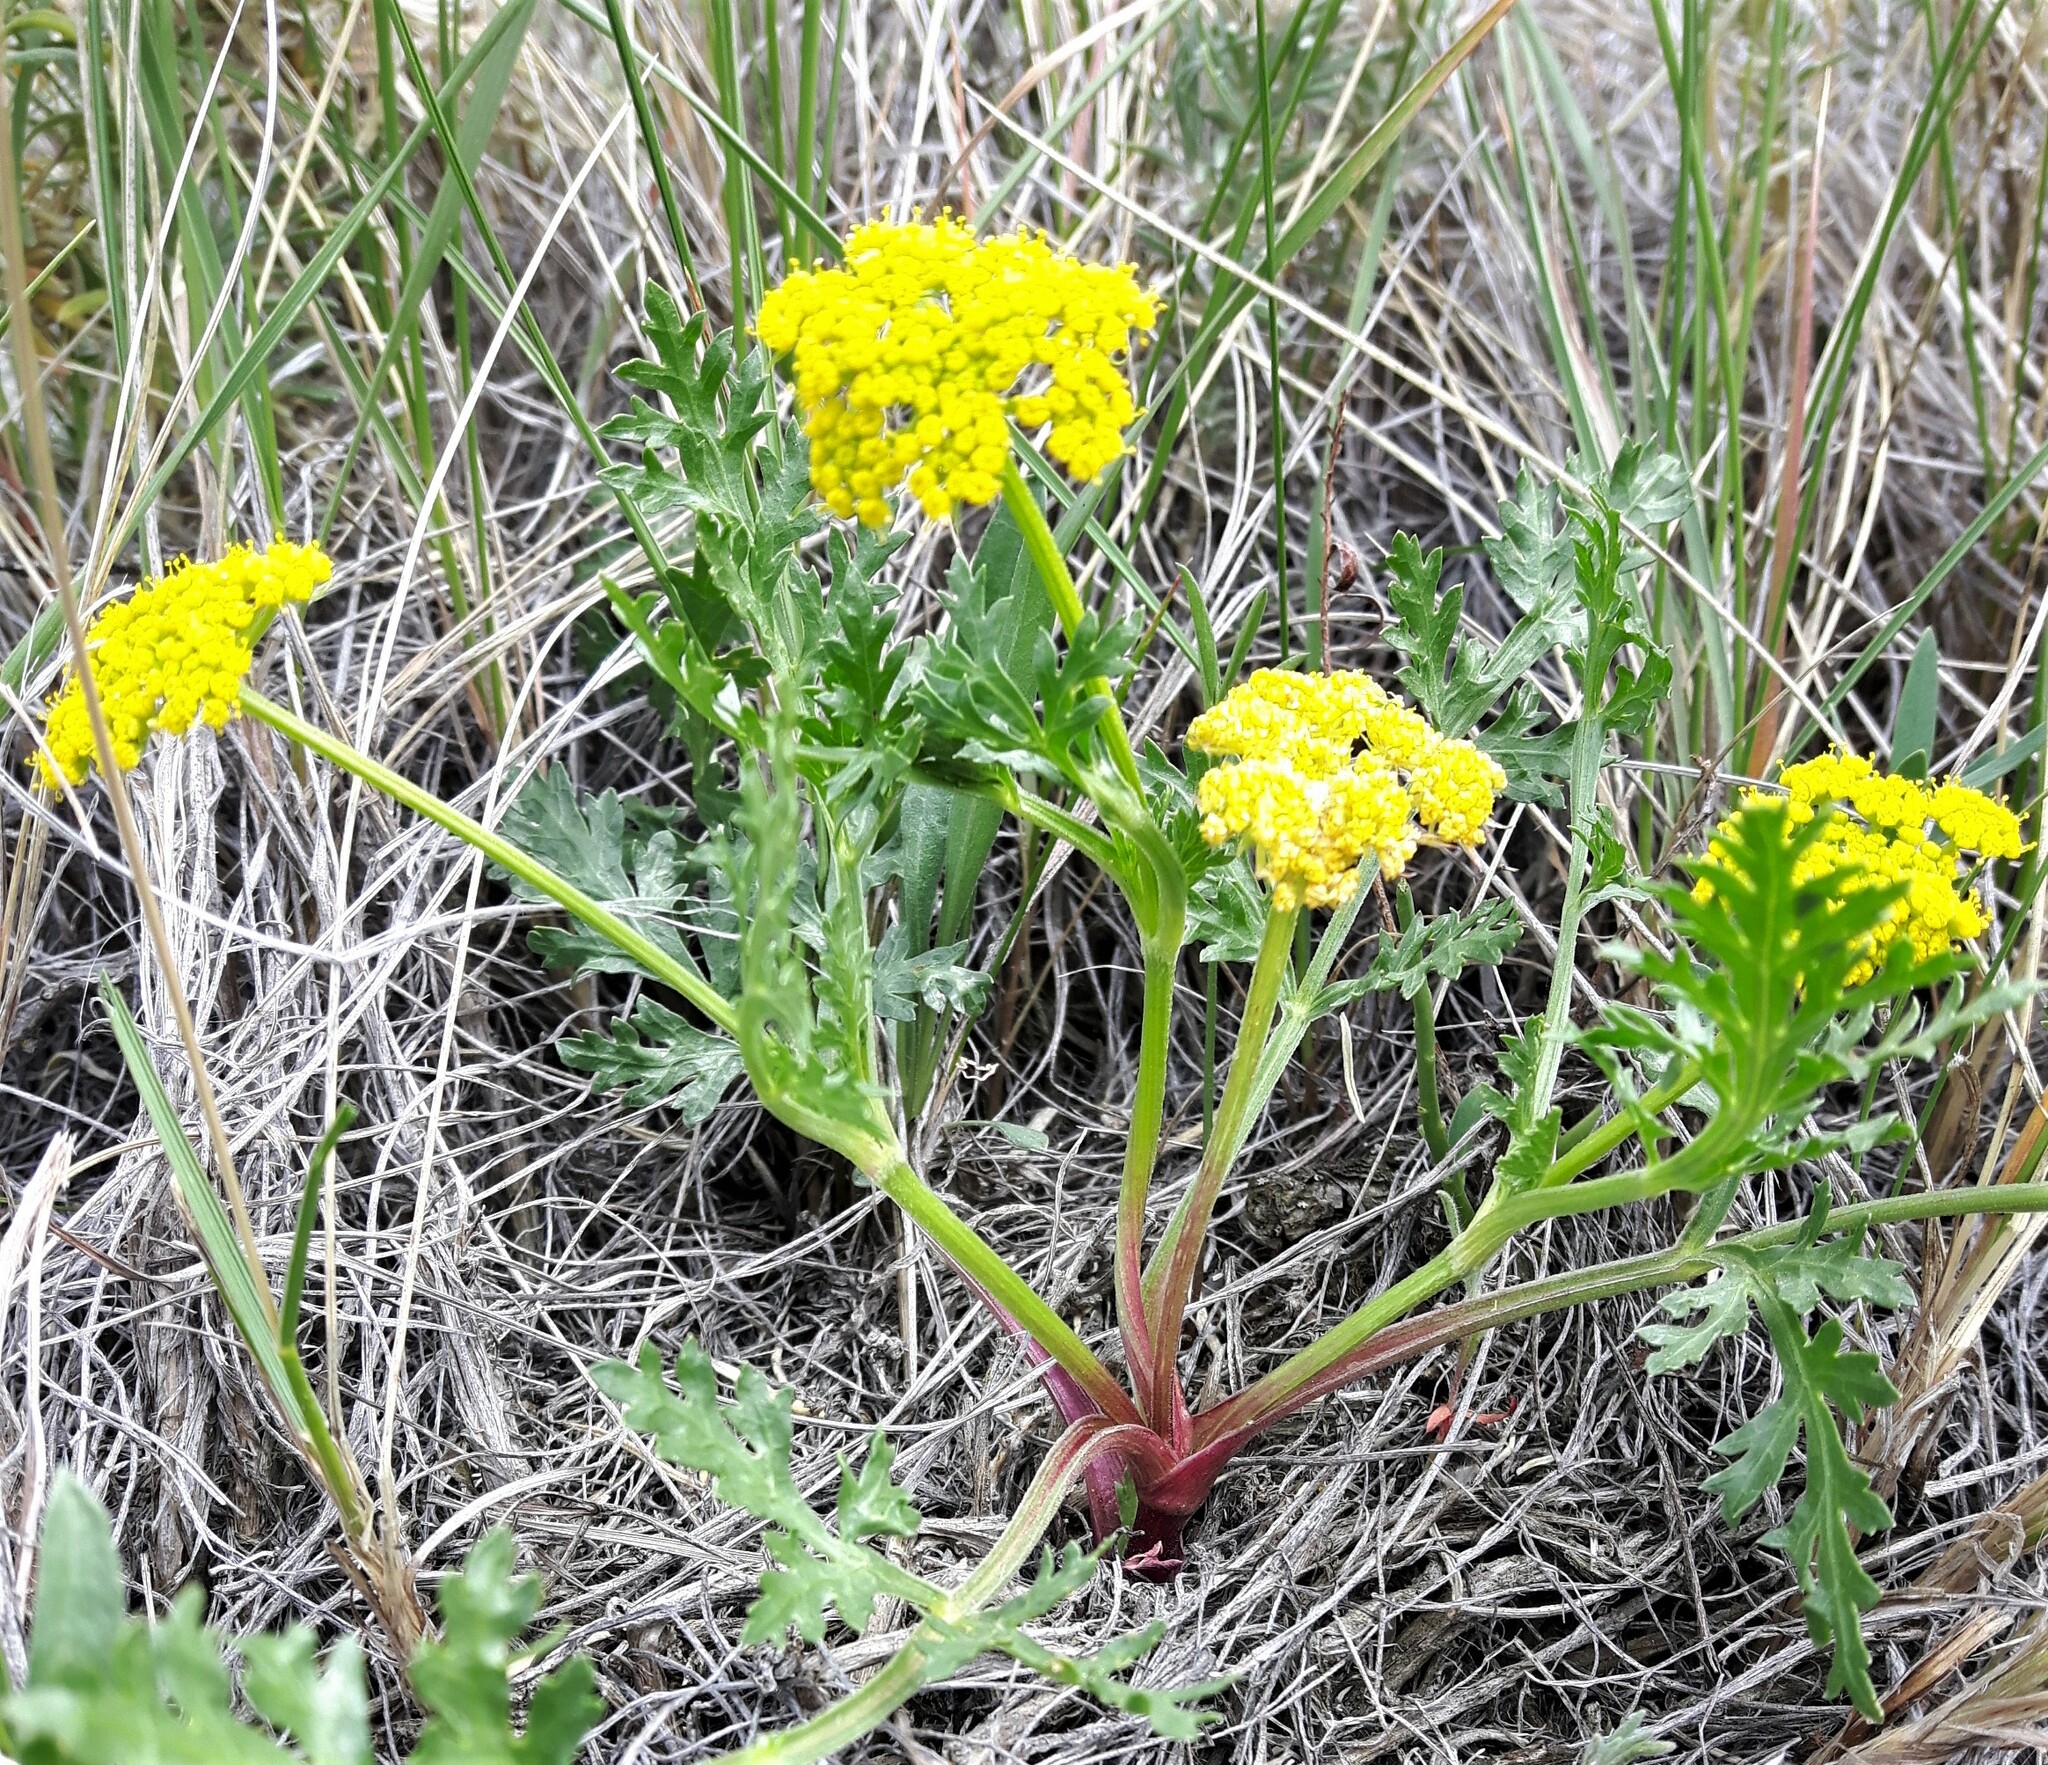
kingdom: Plantae
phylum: Tracheophyta
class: Magnoliopsida
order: Apiales
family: Apiaceae
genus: Musineon
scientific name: Musineon divaricatum
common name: Plains musineon
